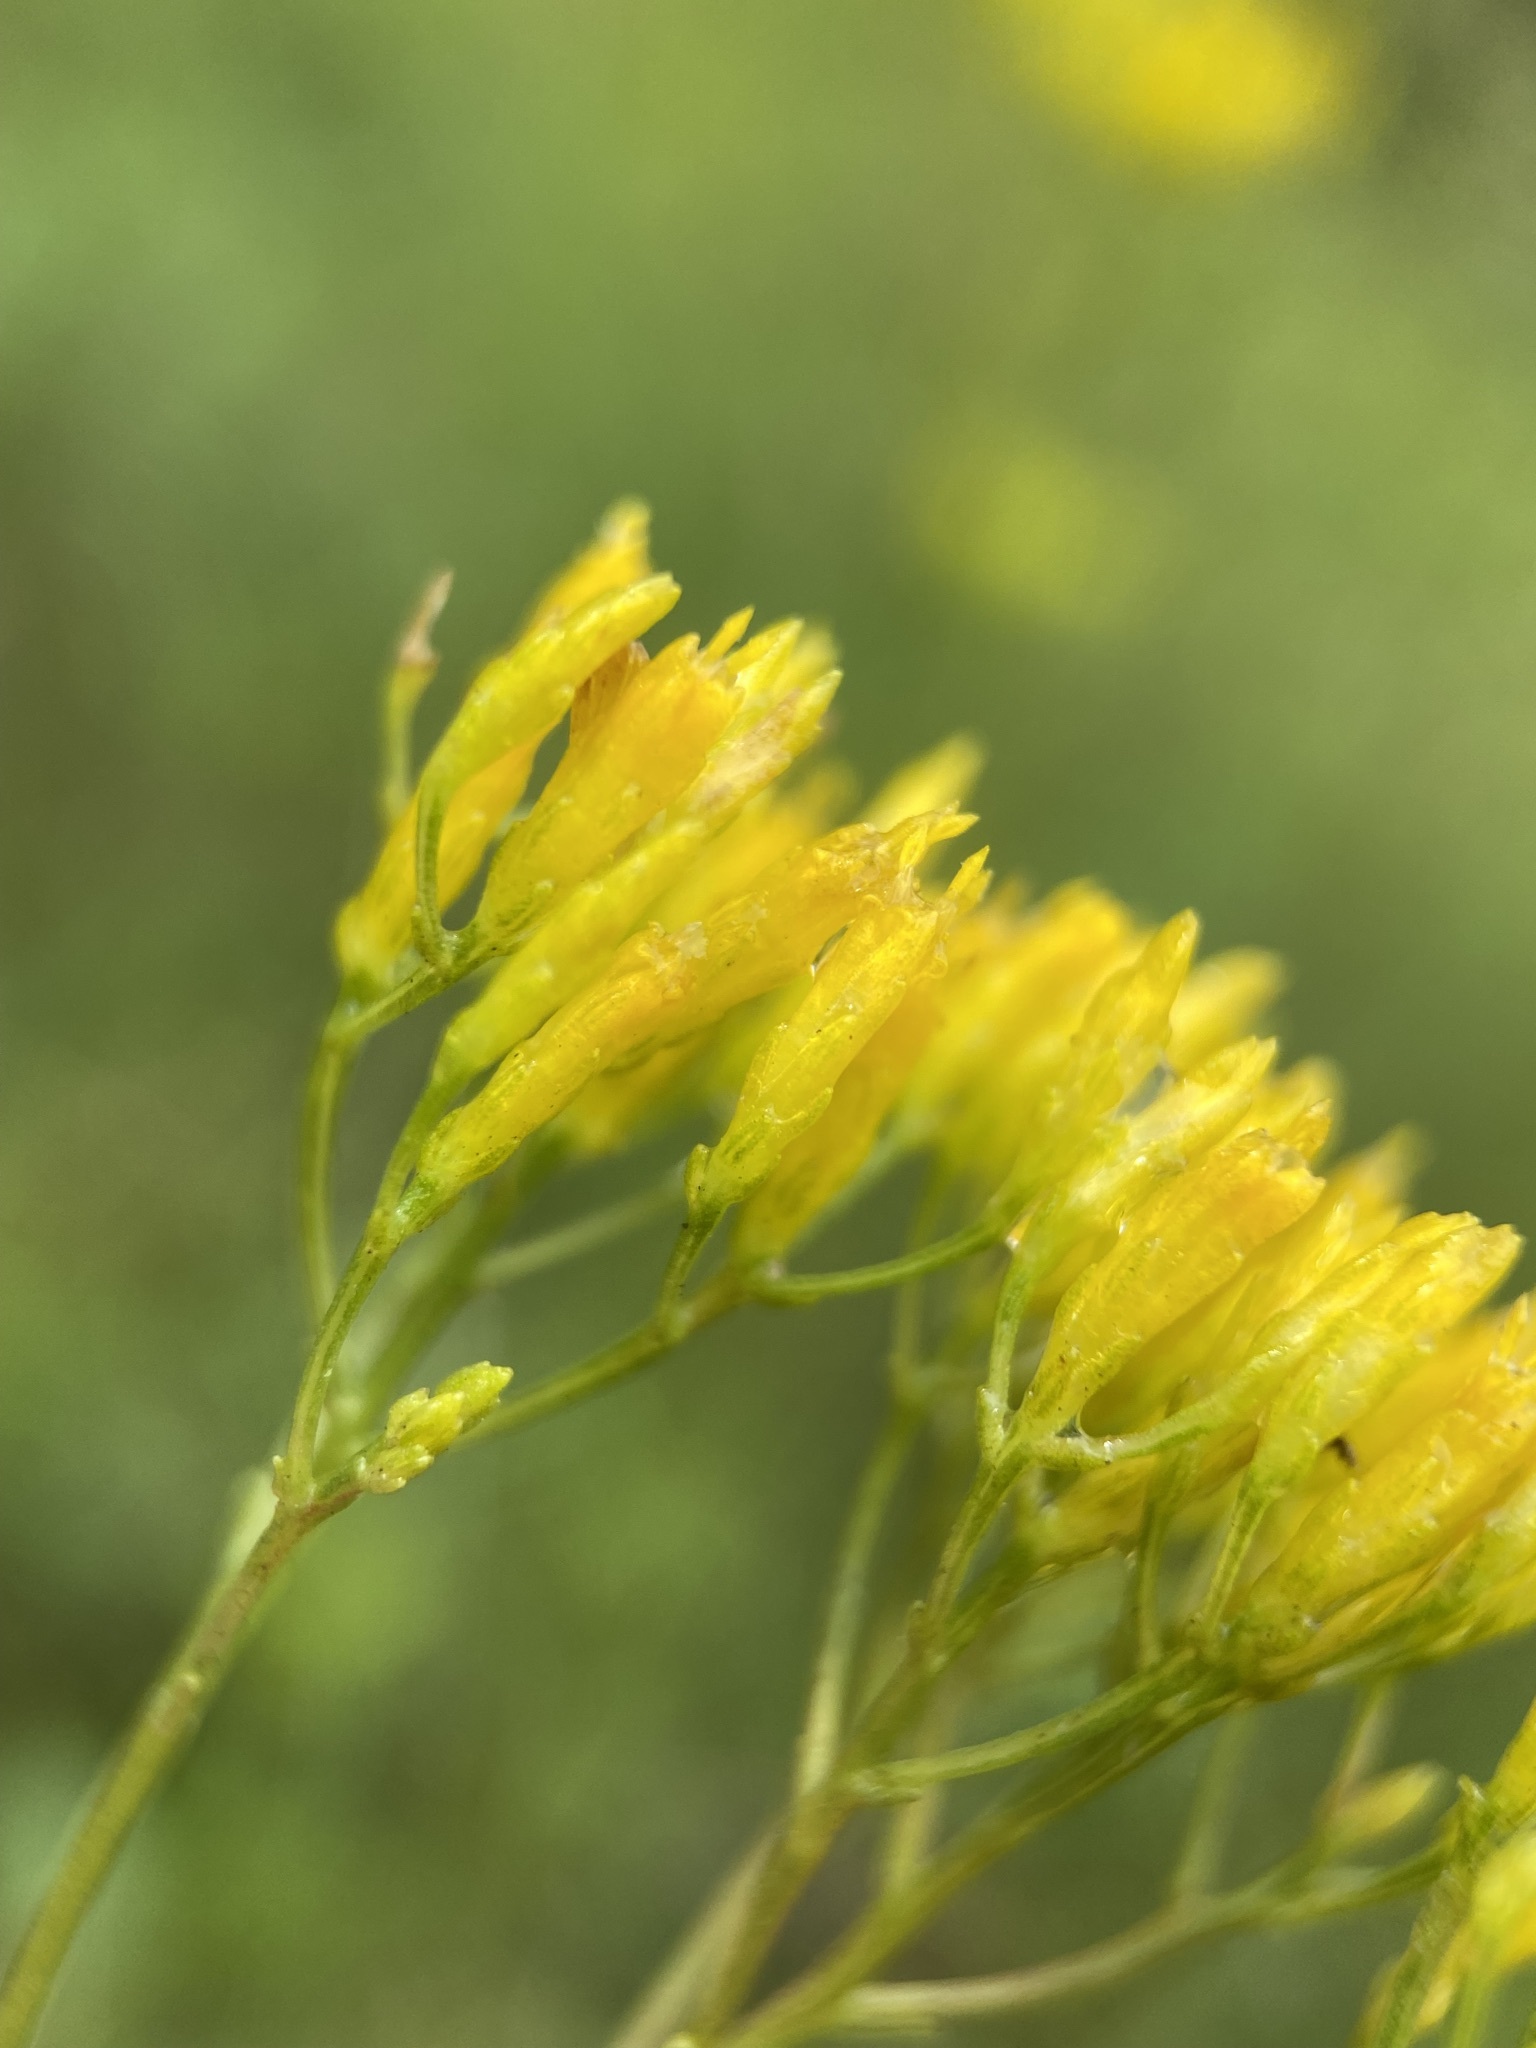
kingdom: Plantae
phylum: Tracheophyta
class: Magnoliopsida
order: Asterales
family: Asteraceae
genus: Bigelowia
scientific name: Bigelowia nudata
